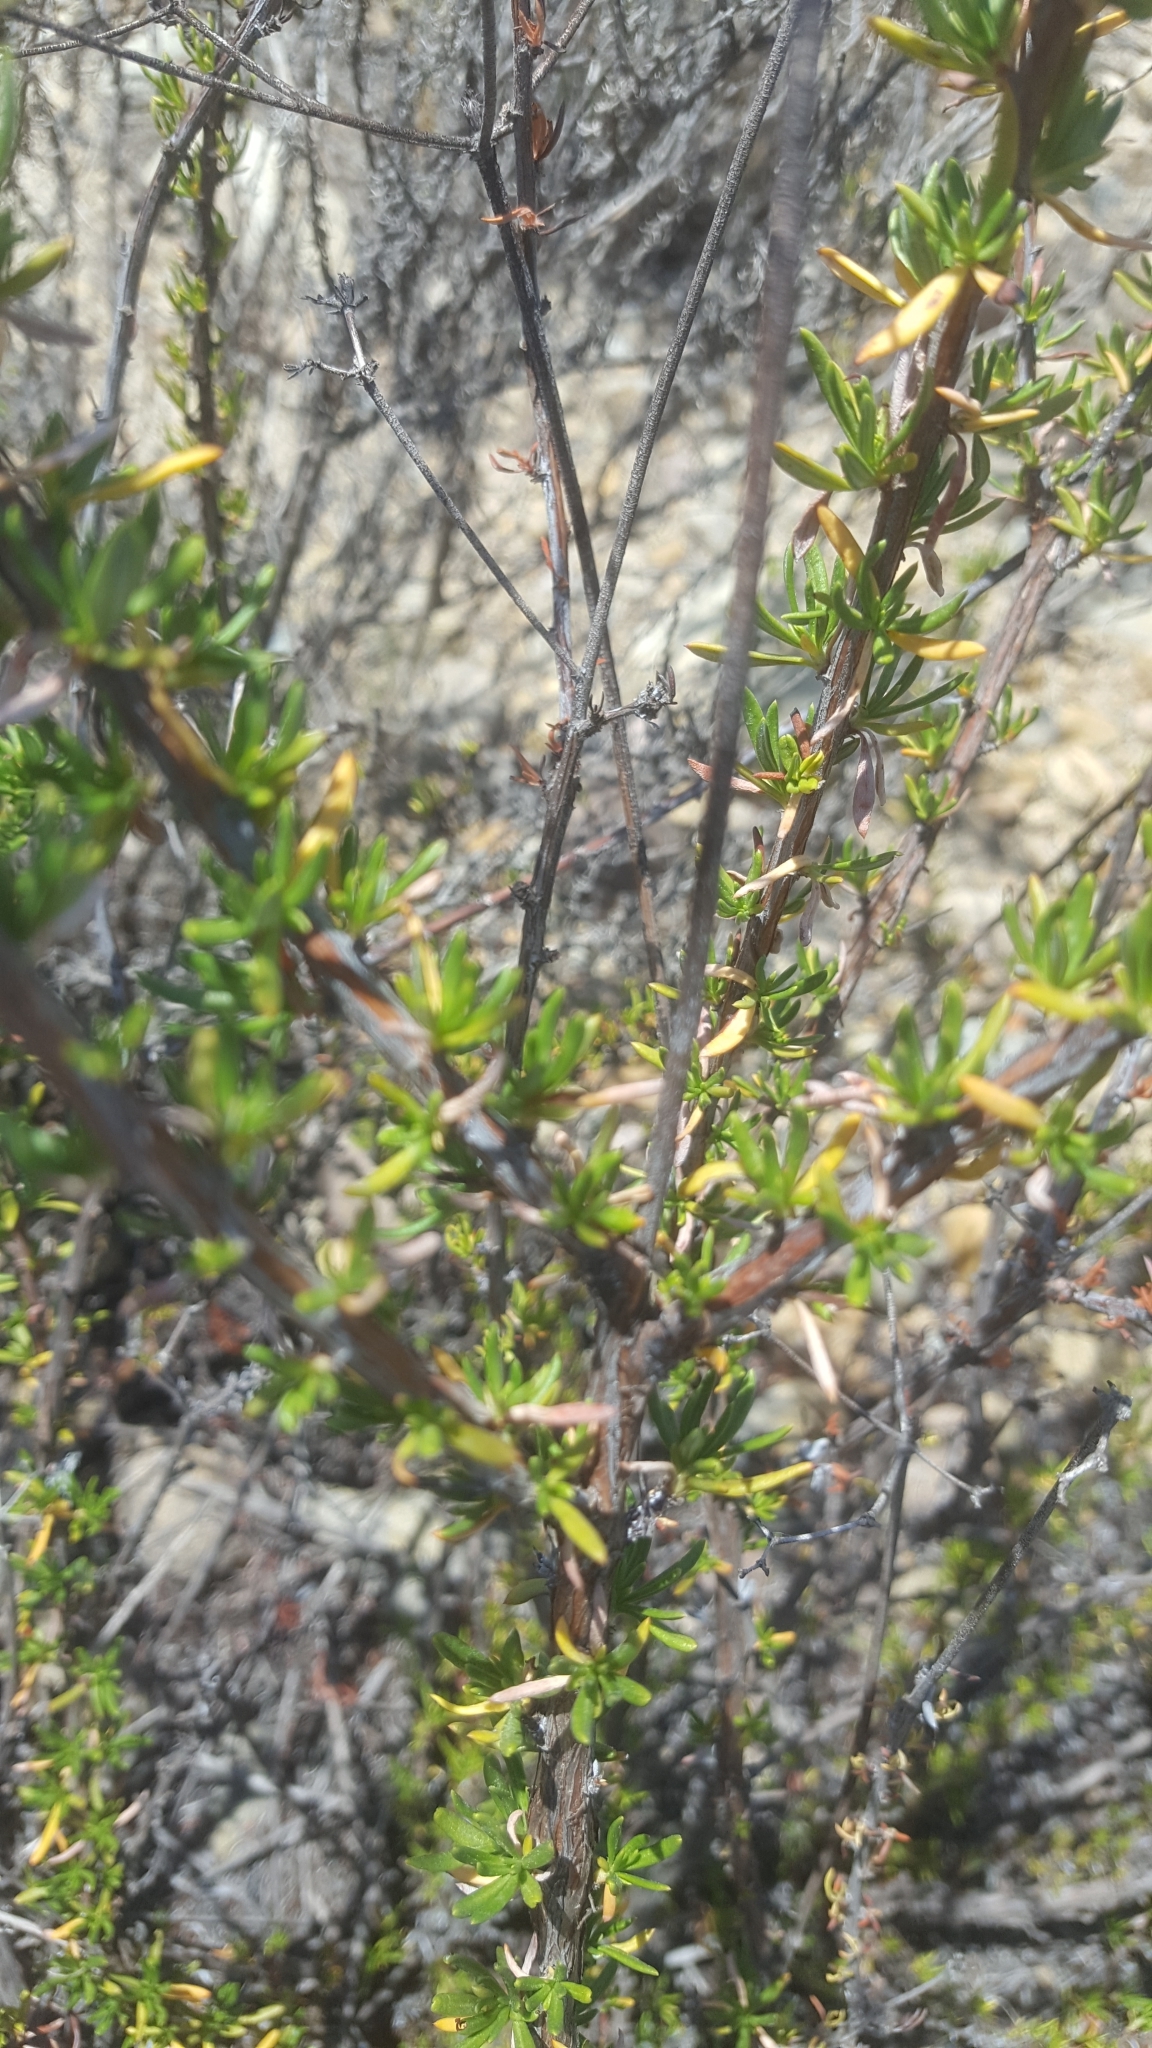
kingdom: Plantae
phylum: Tracheophyta
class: Magnoliopsida
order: Caryophyllales
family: Polygonaceae
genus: Eriogonum
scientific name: Eriogonum fasciculatum
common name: California wild buckwheat
